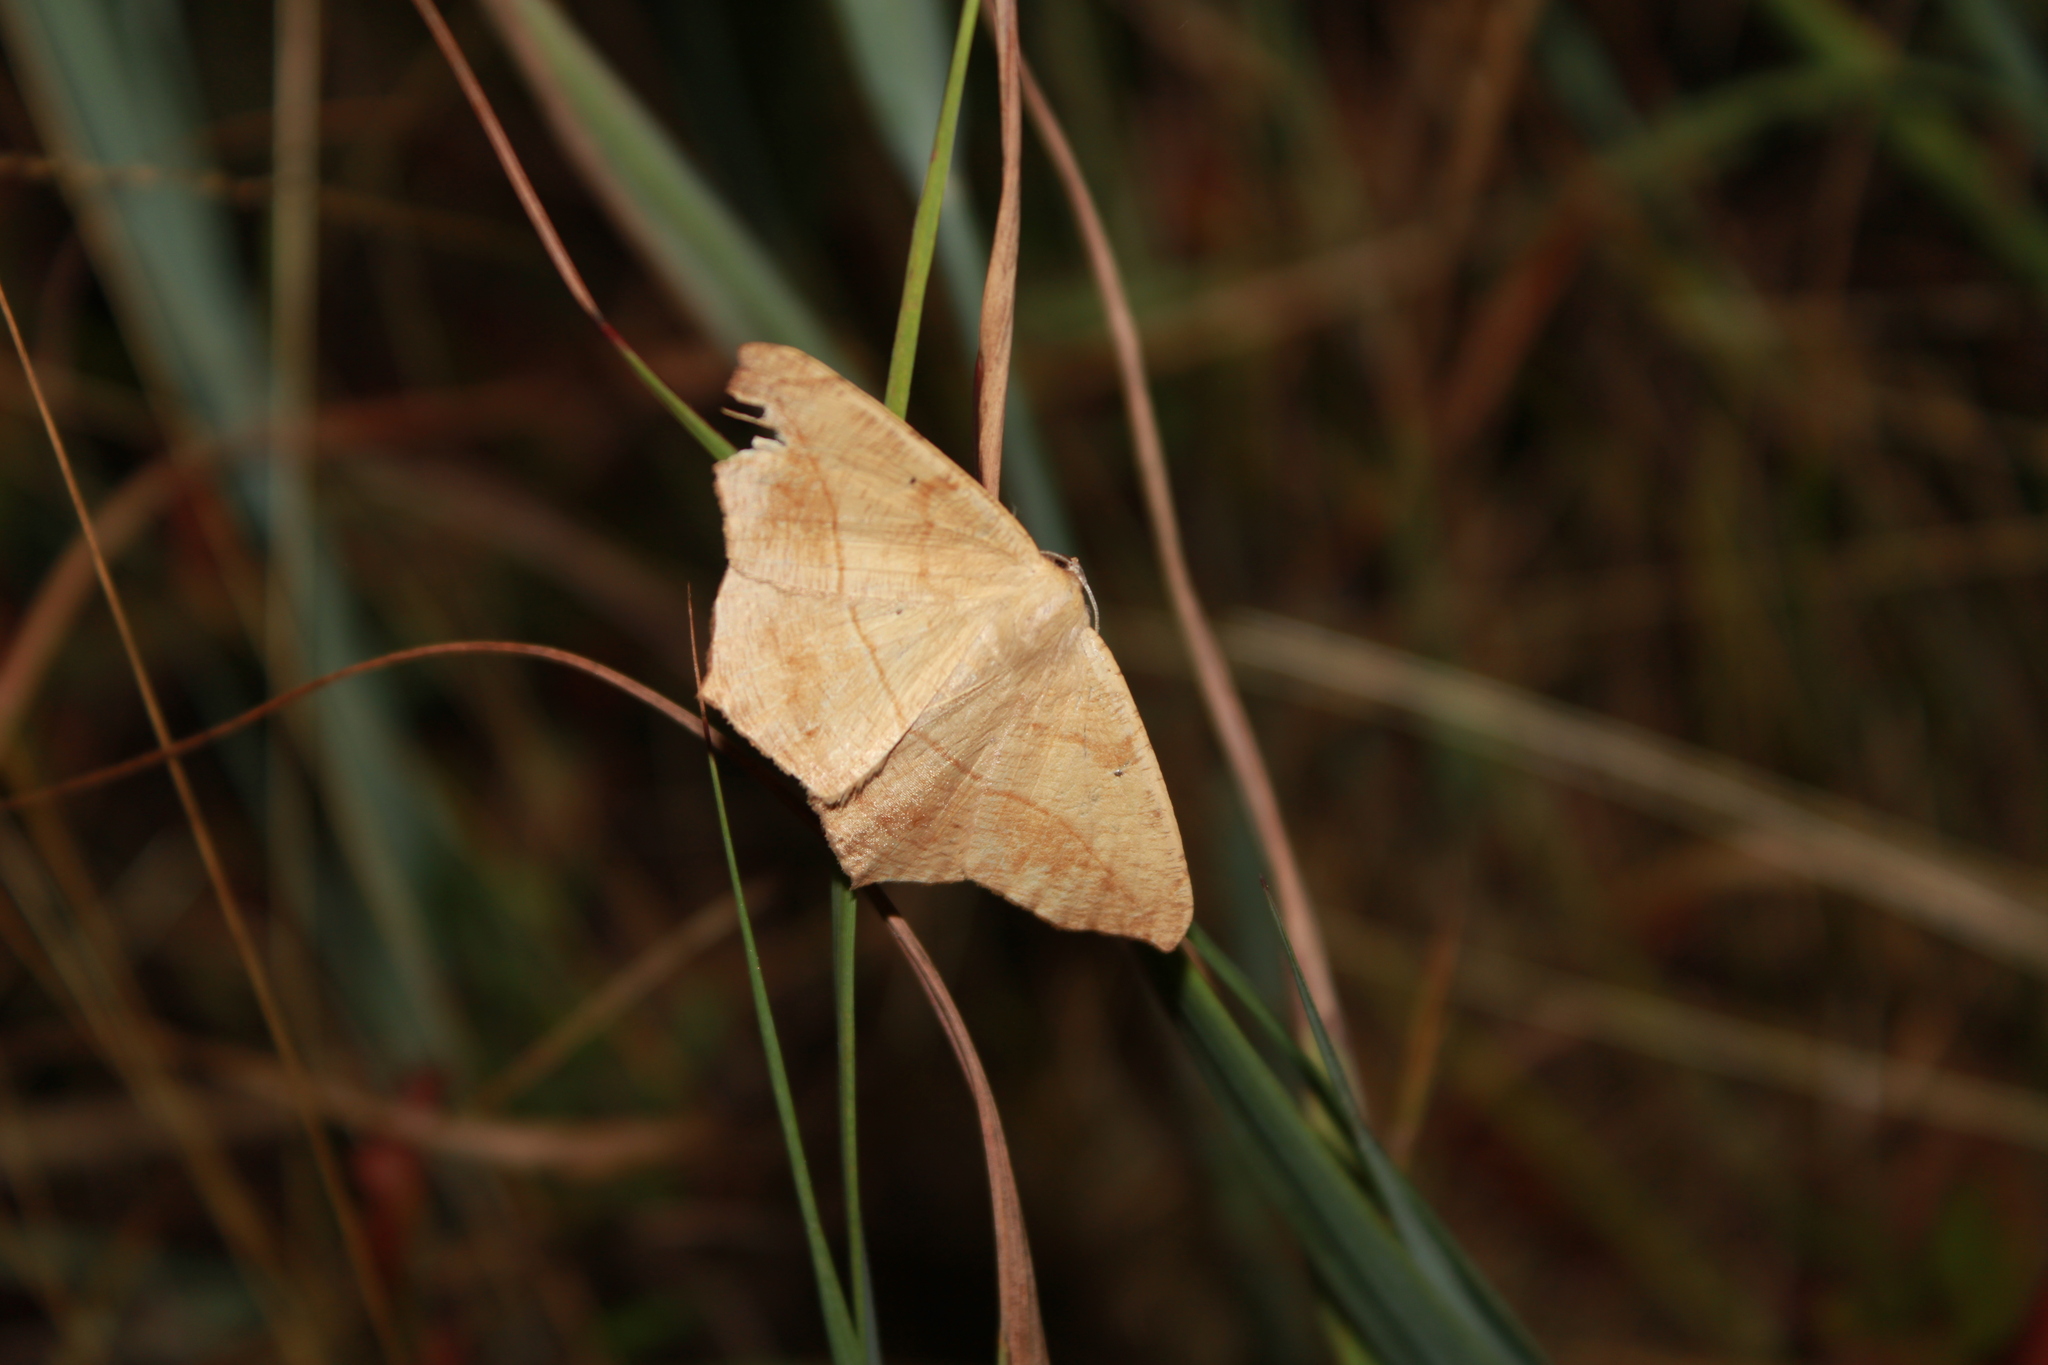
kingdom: Animalia
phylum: Arthropoda
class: Insecta
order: Lepidoptera
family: Geometridae
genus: Prochoerodes
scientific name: Prochoerodes lineola
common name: Large maple spanworm
